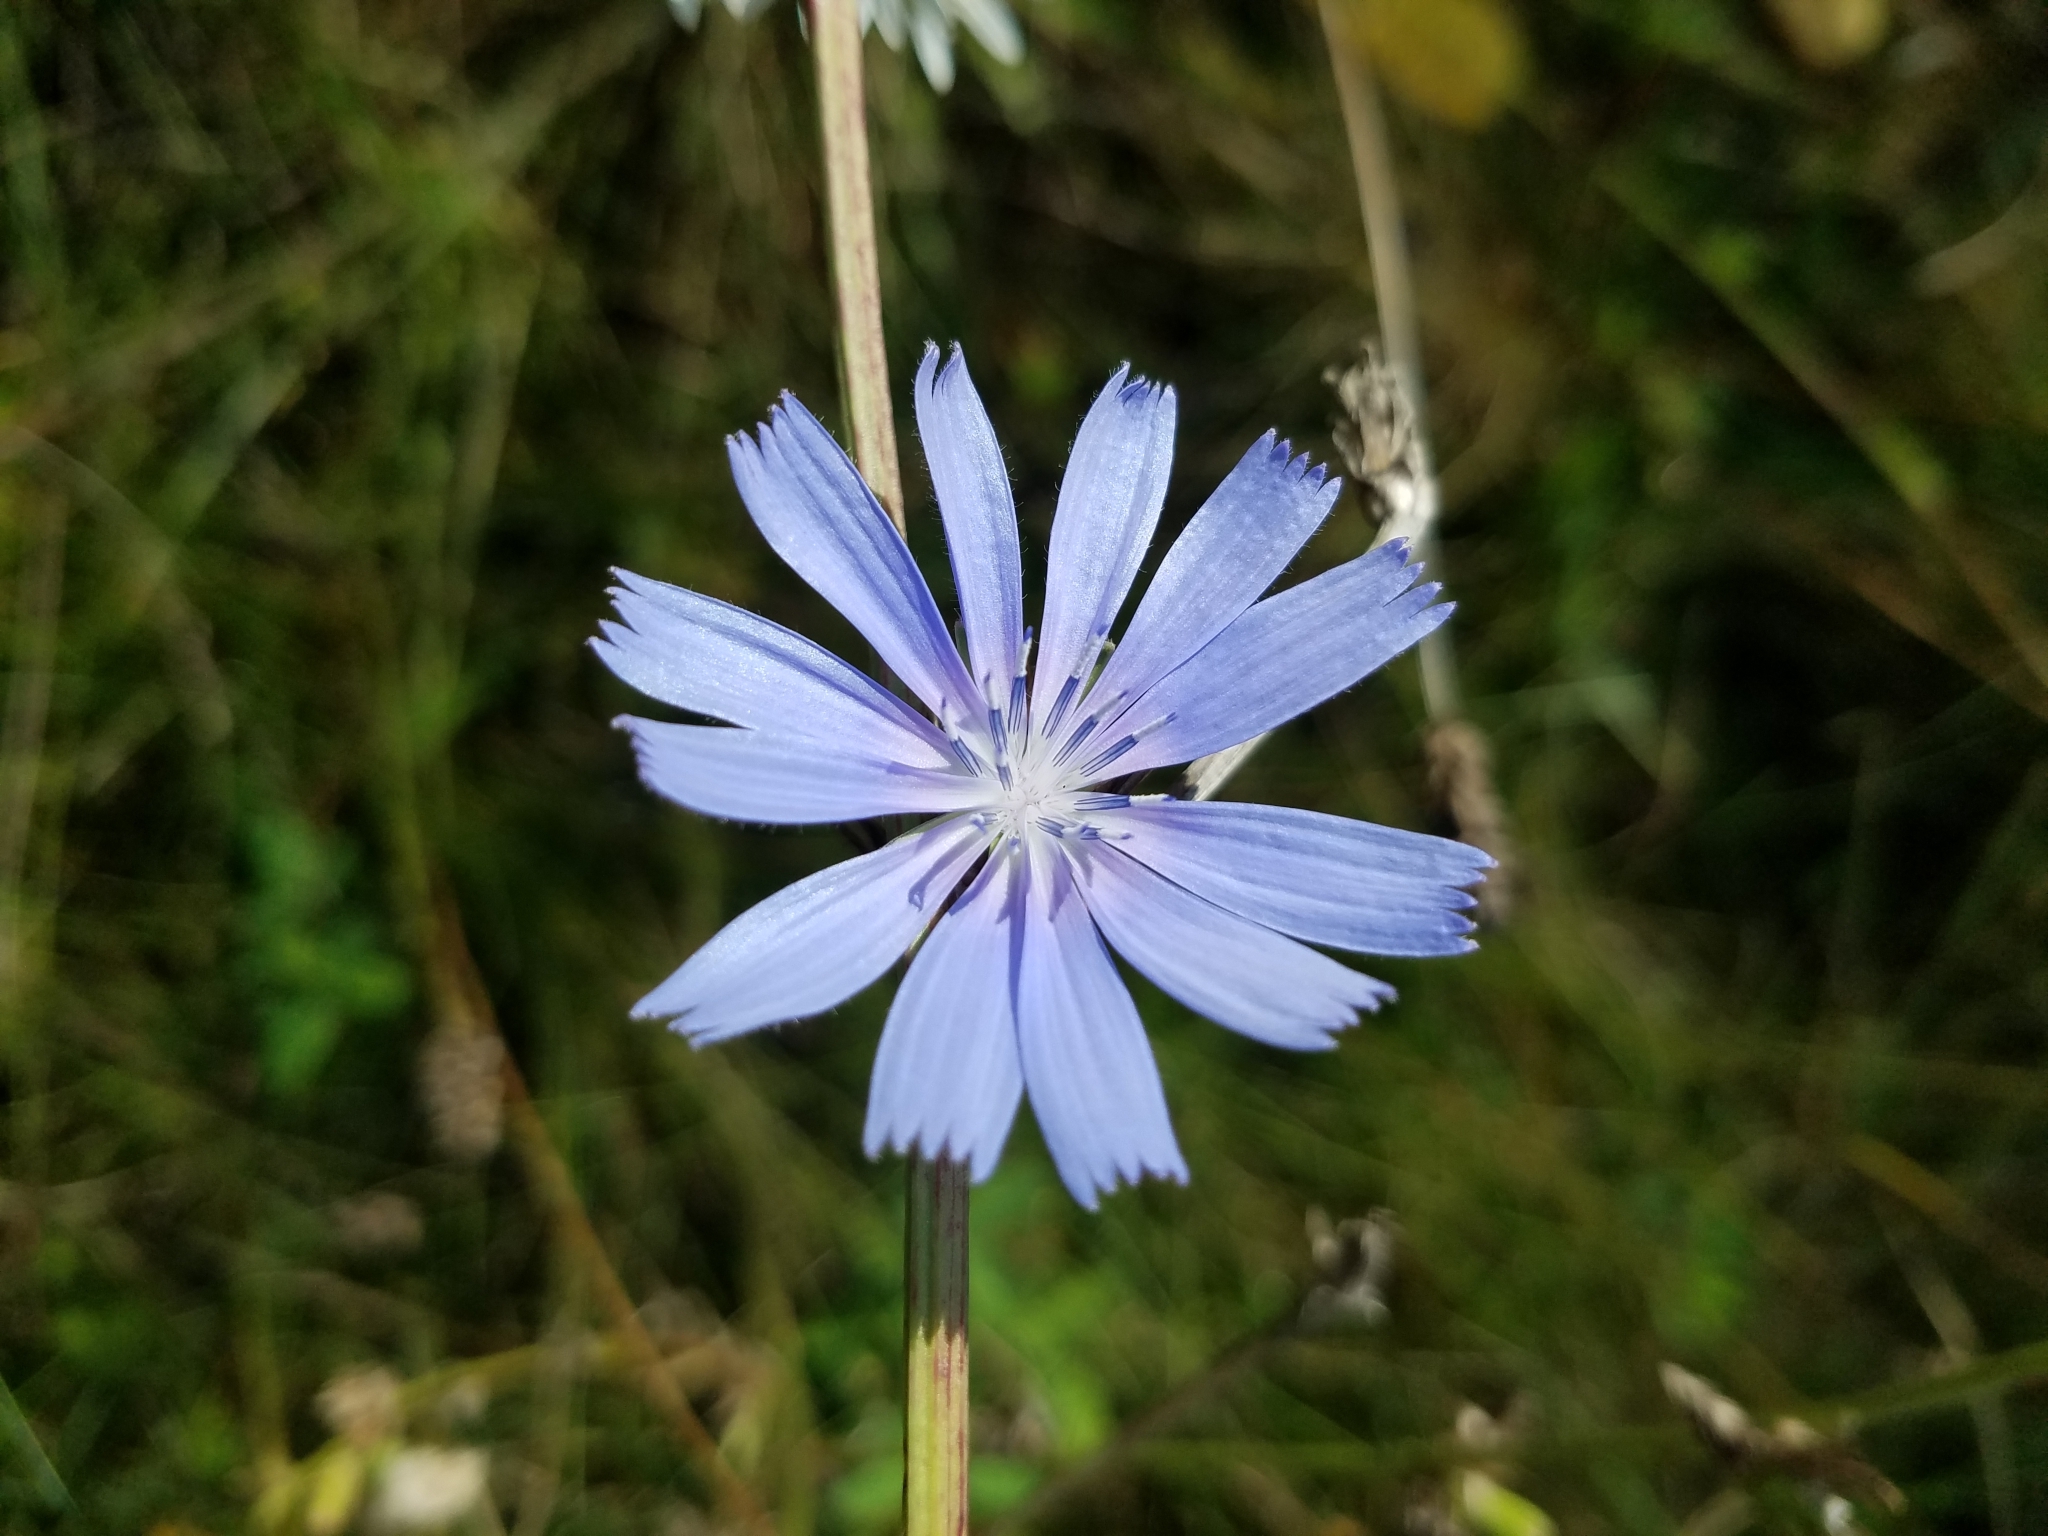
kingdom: Plantae
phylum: Tracheophyta
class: Magnoliopsida
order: Asterales
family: Asteraceae
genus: Cichorium
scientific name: Cichorium intybus
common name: Chicory
